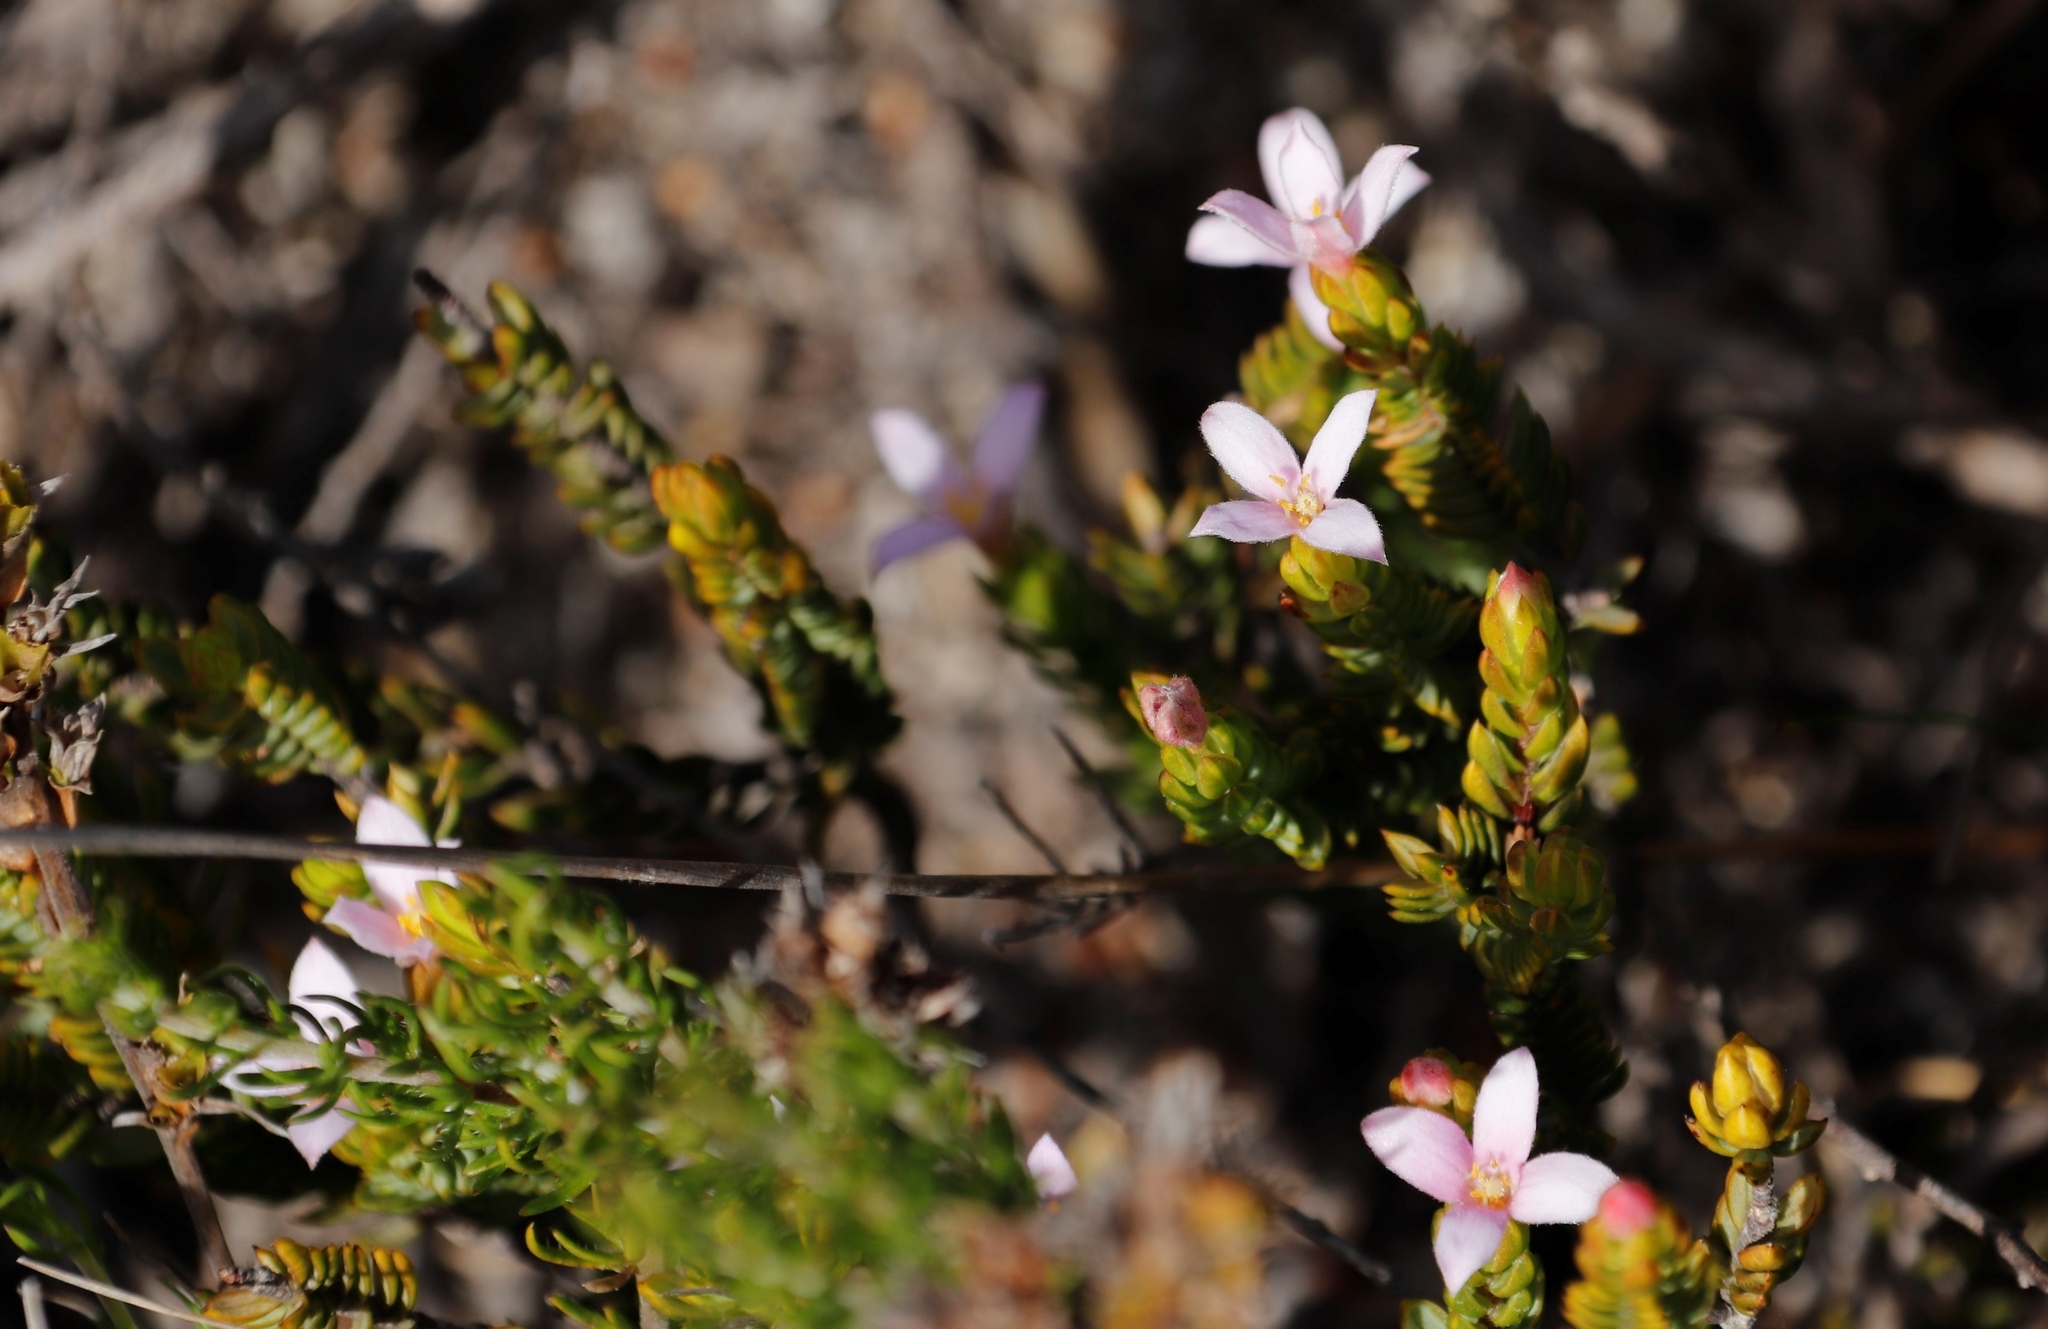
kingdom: Plantae
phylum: Tracheophyta
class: Magnoliopsida
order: Malvales
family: Thymelaeaceae
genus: Lachnaea
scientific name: Lachnaea grandiflora
